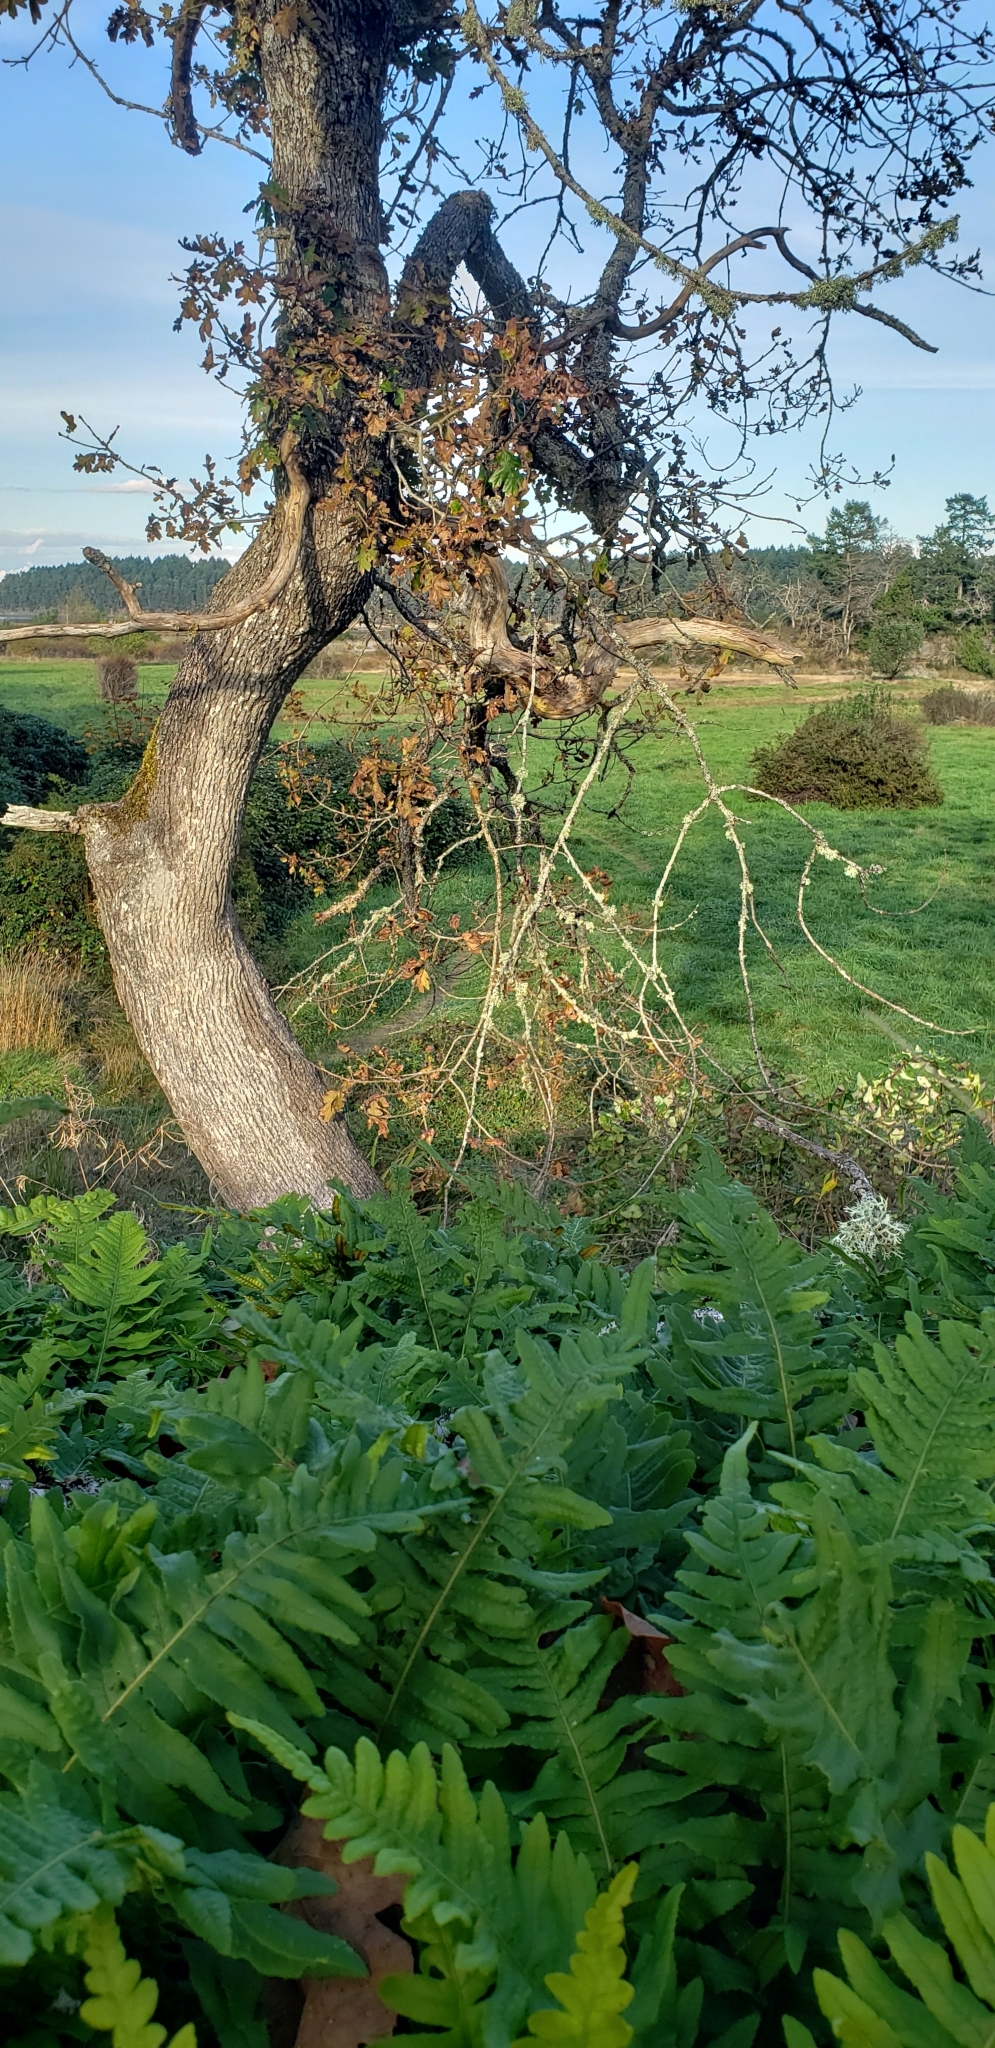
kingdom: Plantae
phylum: Tracheophyta
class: Polypodiopsida
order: Polypodiales
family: Polypodiaceae
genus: Polypodium
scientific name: Polypodium glycyrrhiza
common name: Licorice fern
